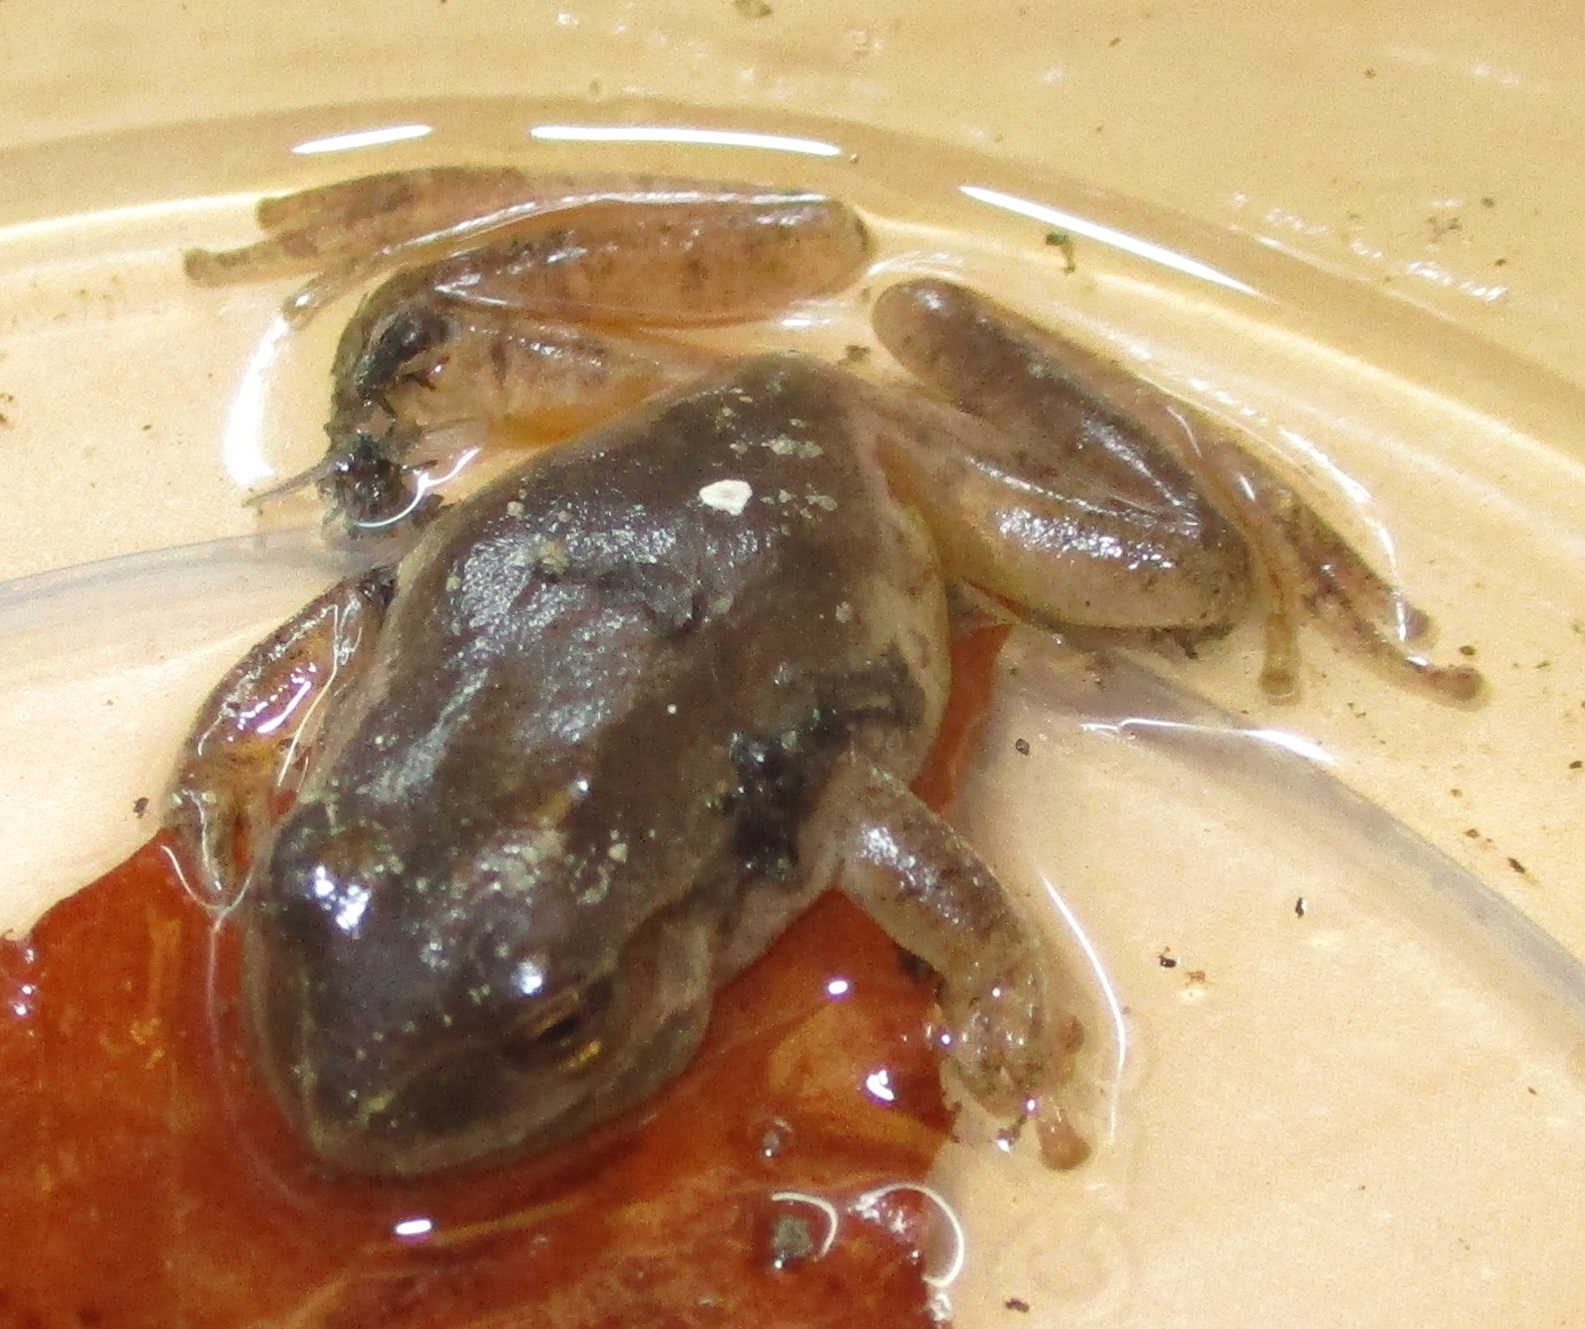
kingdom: Animalia
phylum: Chordata
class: Amphibia
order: Anura
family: Hylidae
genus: Pseudacris
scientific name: Pseudacris crucifer
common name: Spring peeper
